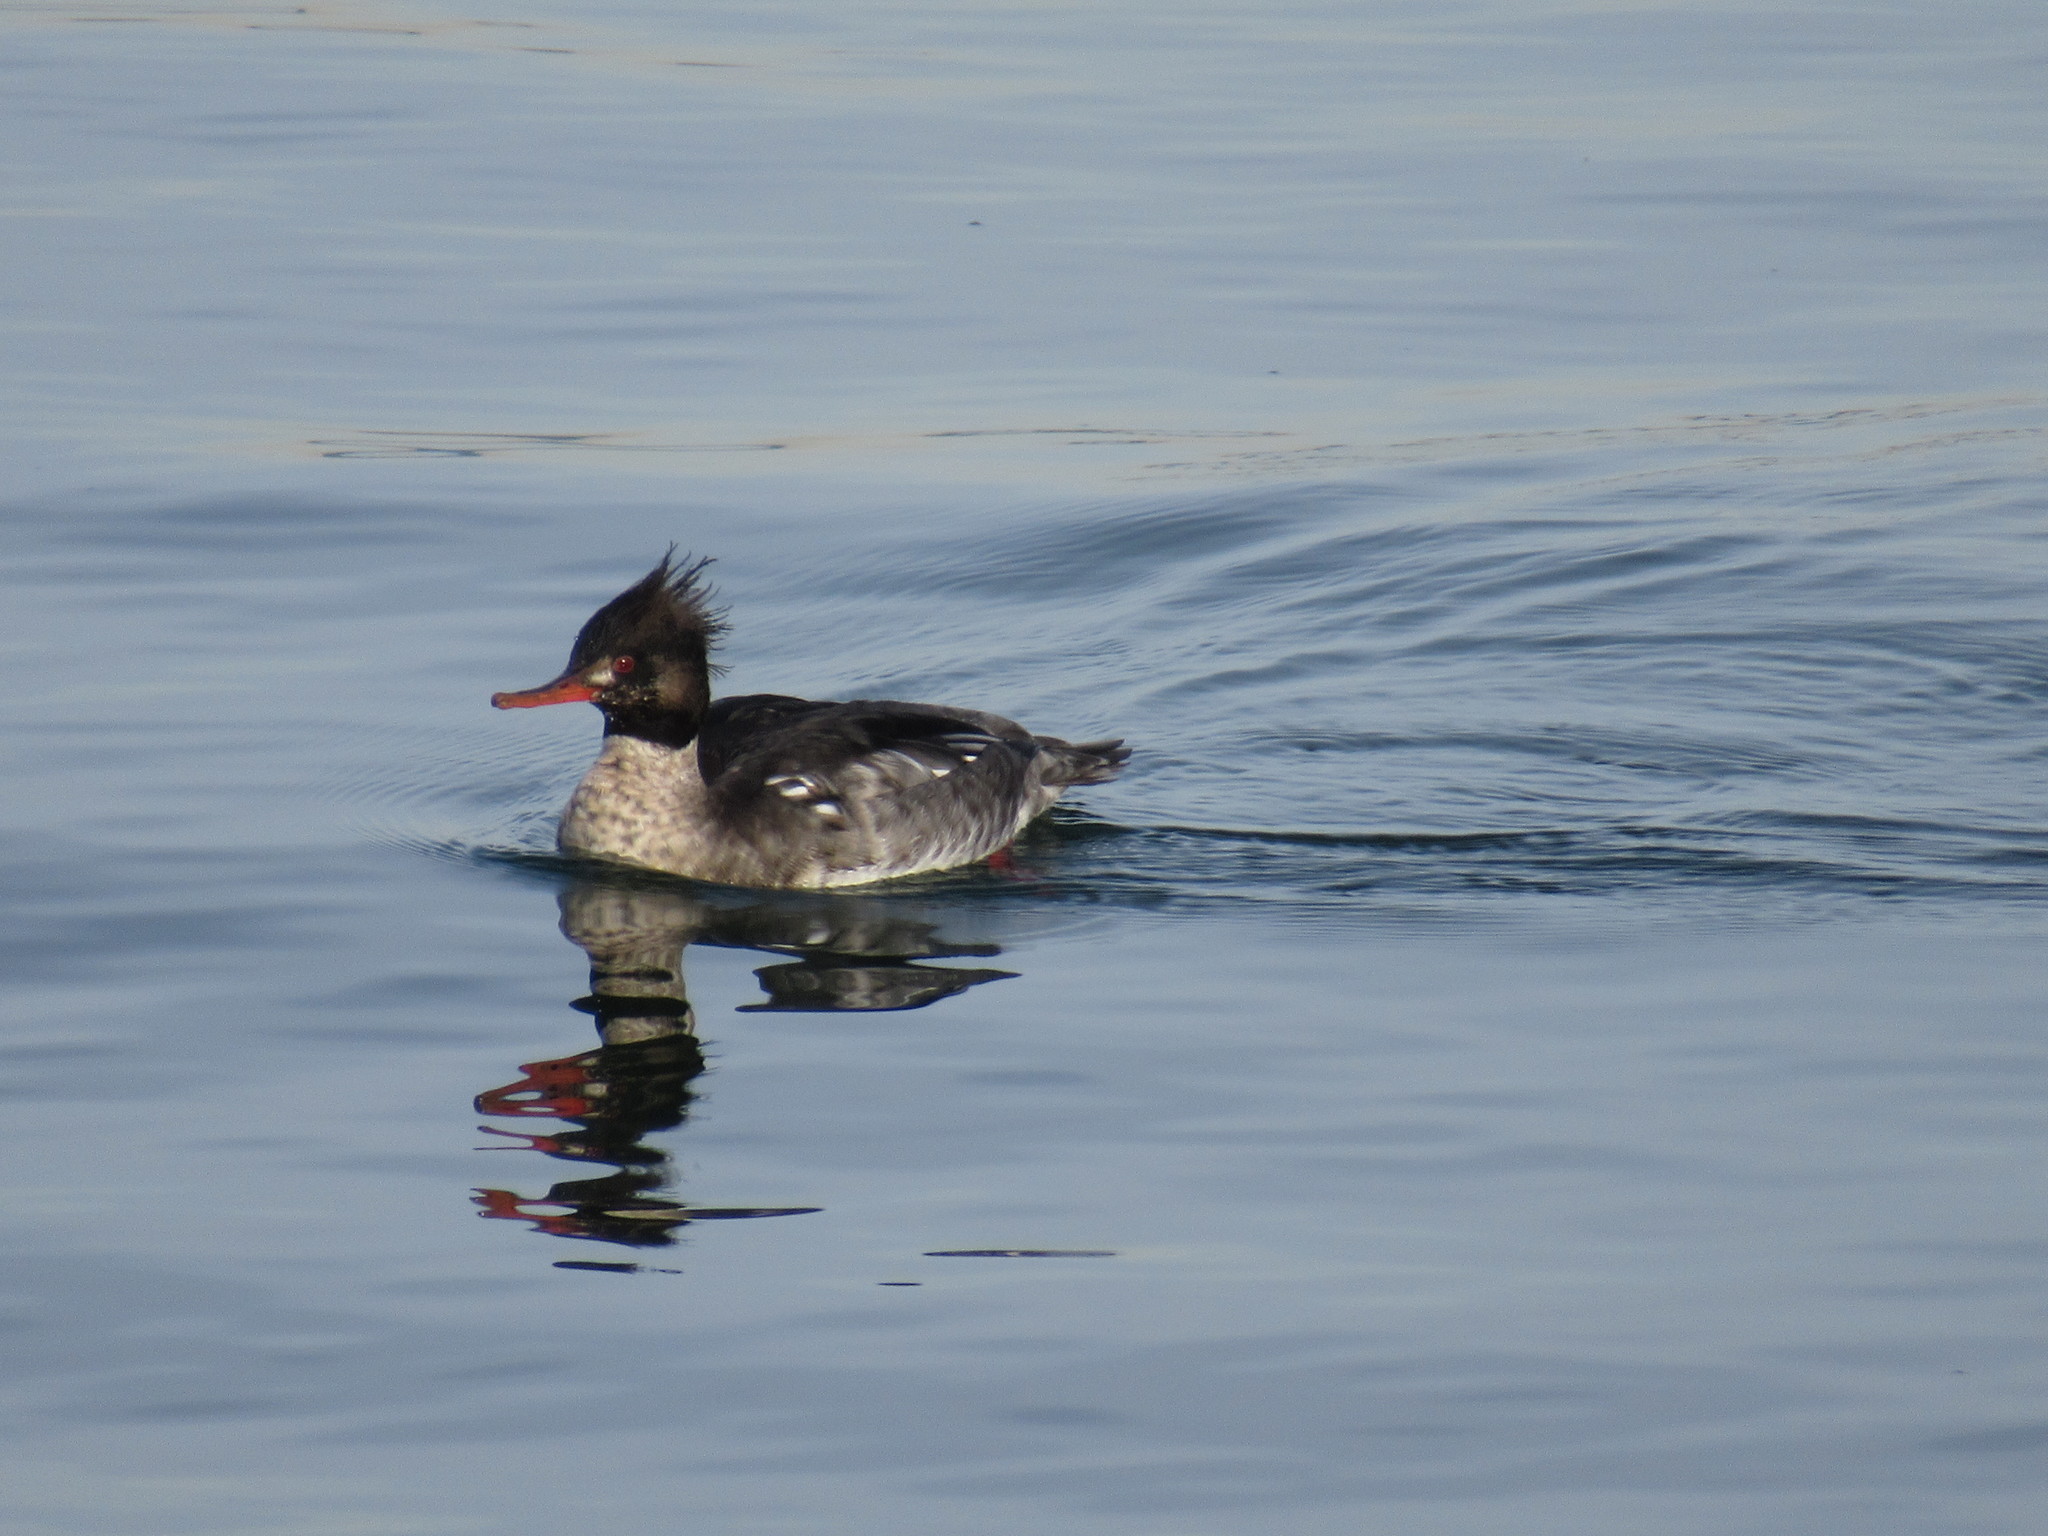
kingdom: Animalia
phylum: Chordata
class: Aves
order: Anseriformes
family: Anatidae
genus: Mergus
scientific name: Mergus serrator
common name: Red-breasted merganser
